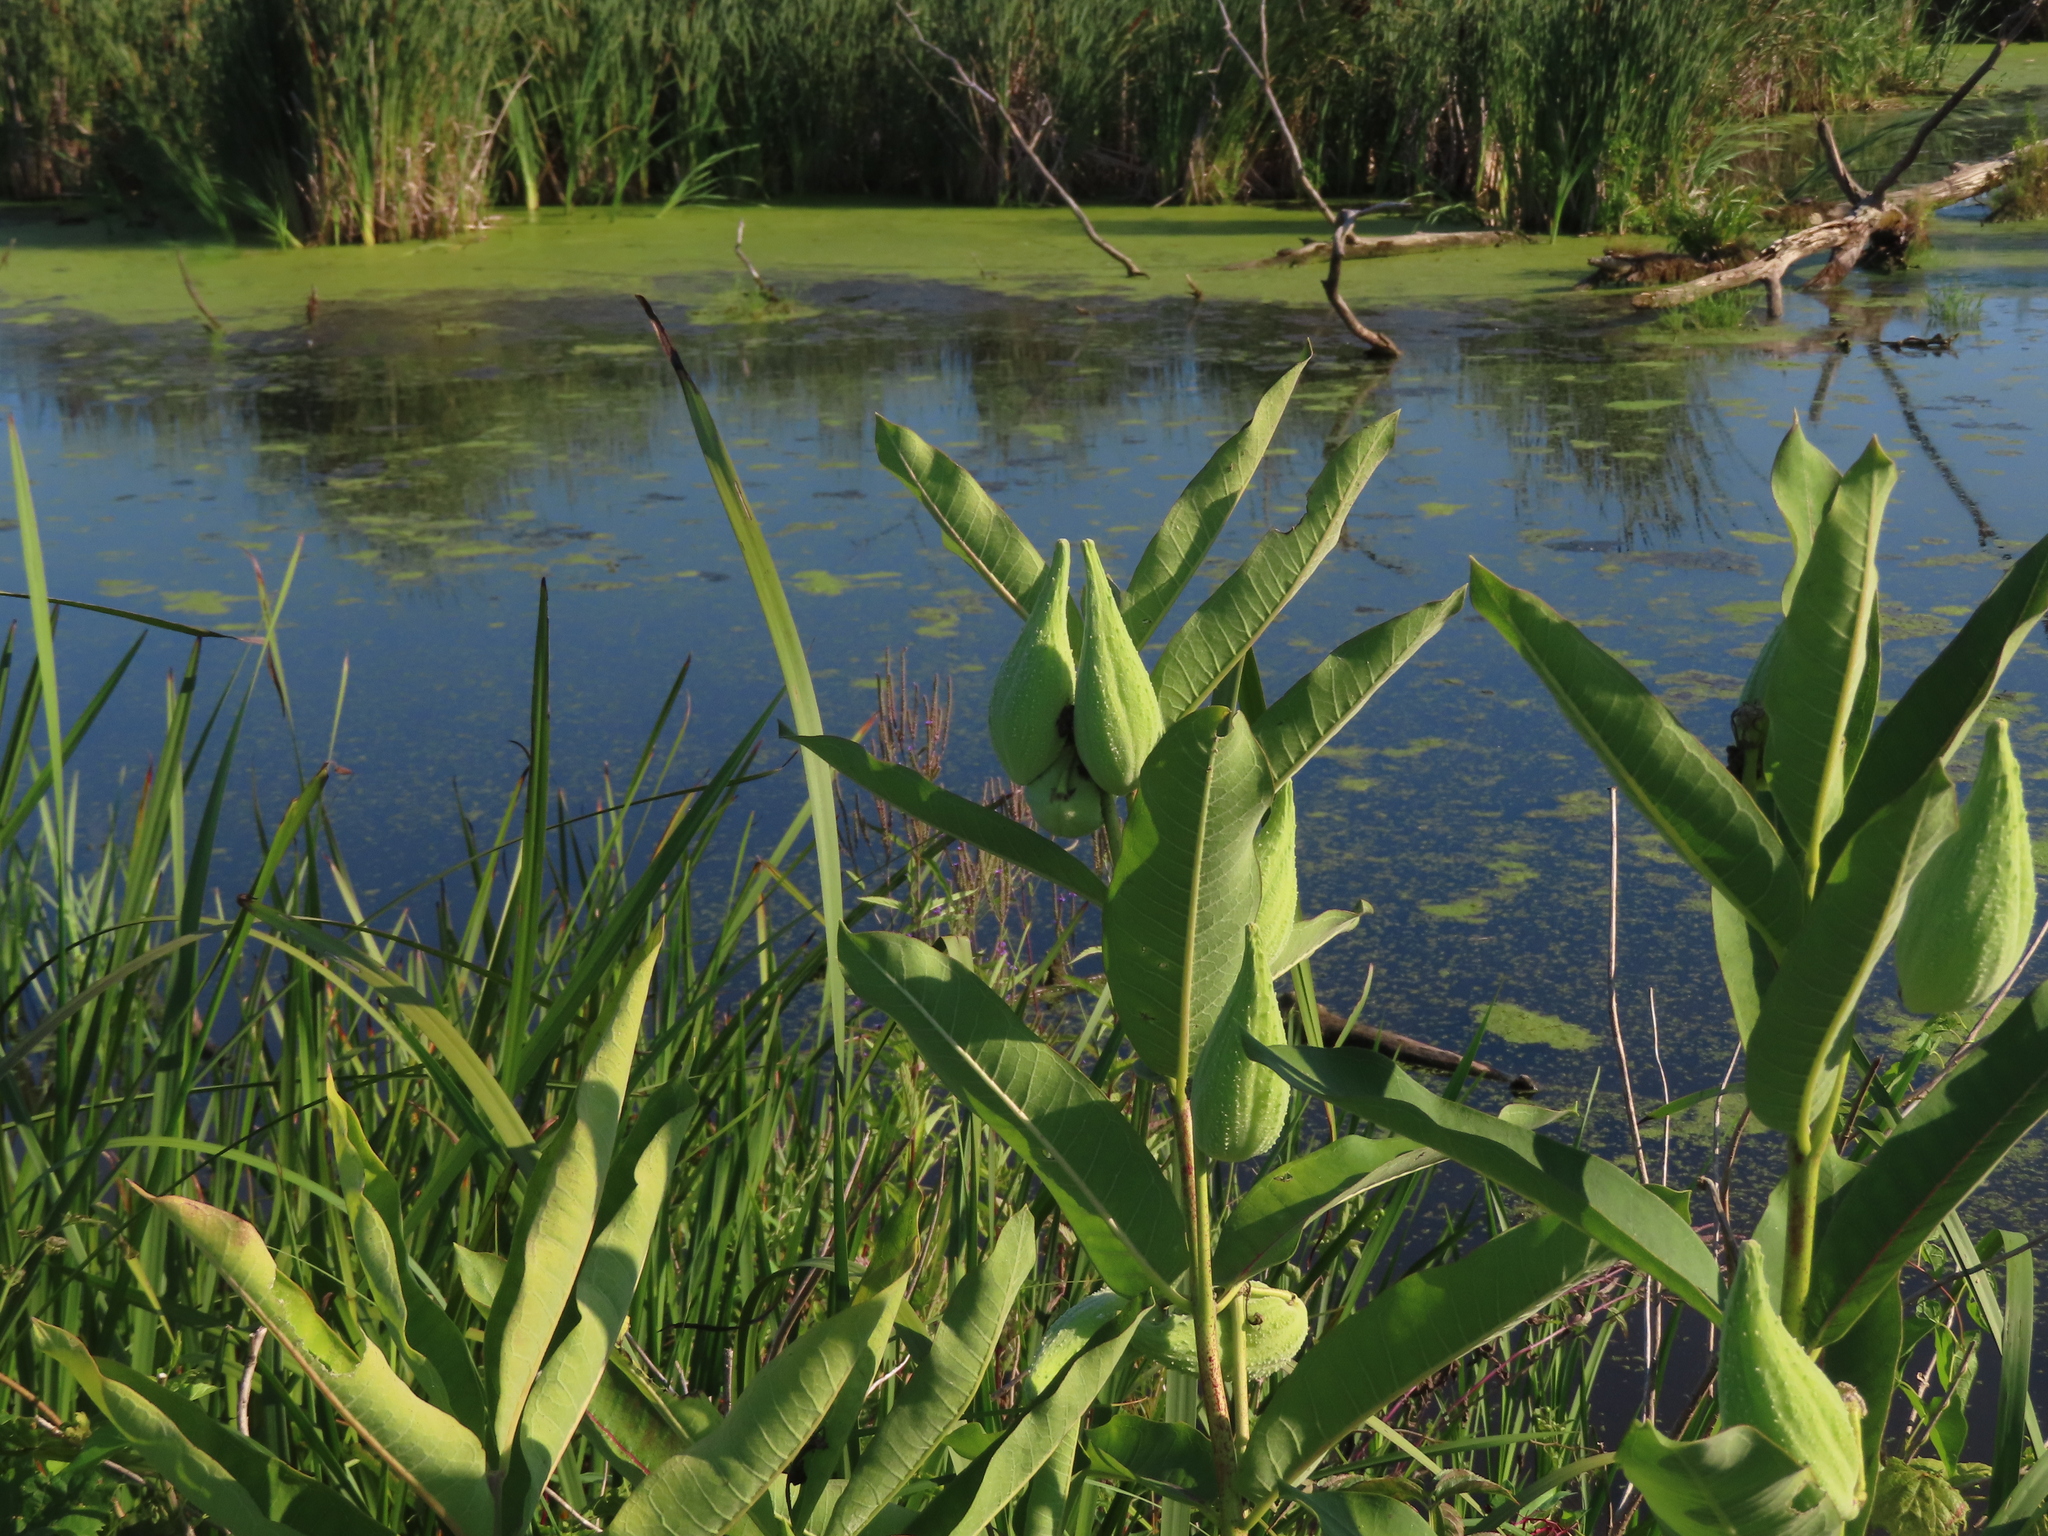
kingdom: Plantae
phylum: Tracheophyta
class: Magnoliopsida
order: Gentianales
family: Apocynaceae
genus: Asclepias
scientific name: Asclepias syriaca
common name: Common milkweed
